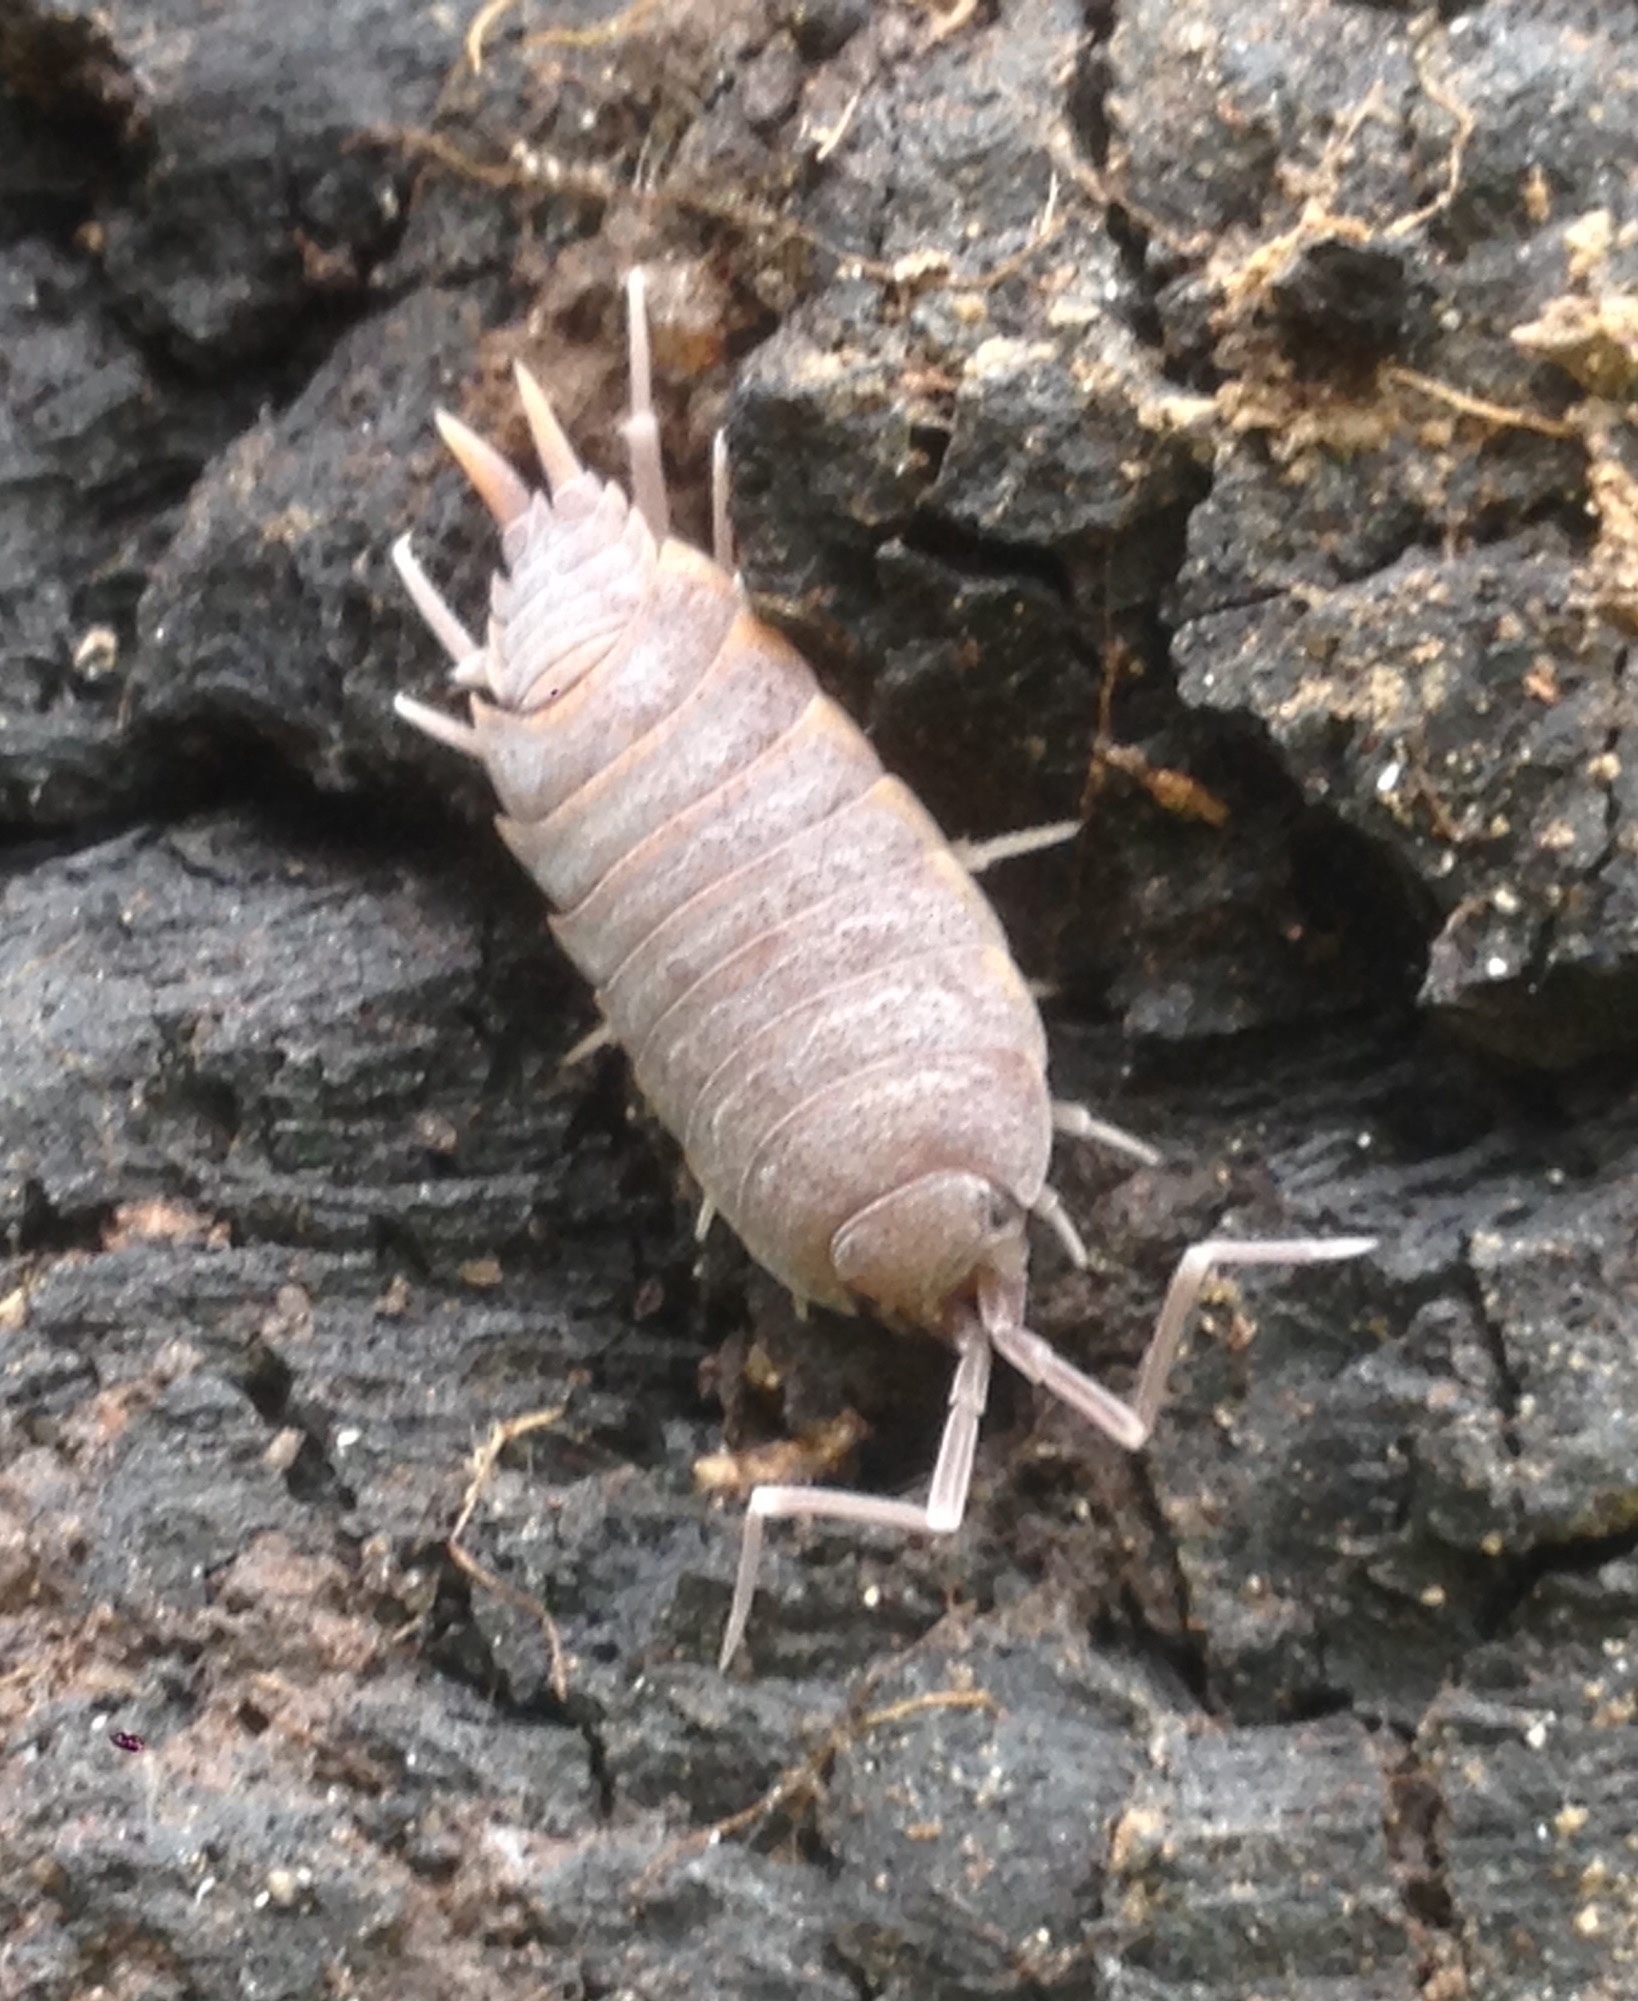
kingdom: Animalia
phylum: Arthropoda
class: Malacostraca
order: Isopoda
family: Porcellionidae
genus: Porcellionides
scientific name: Porcellionides floria
